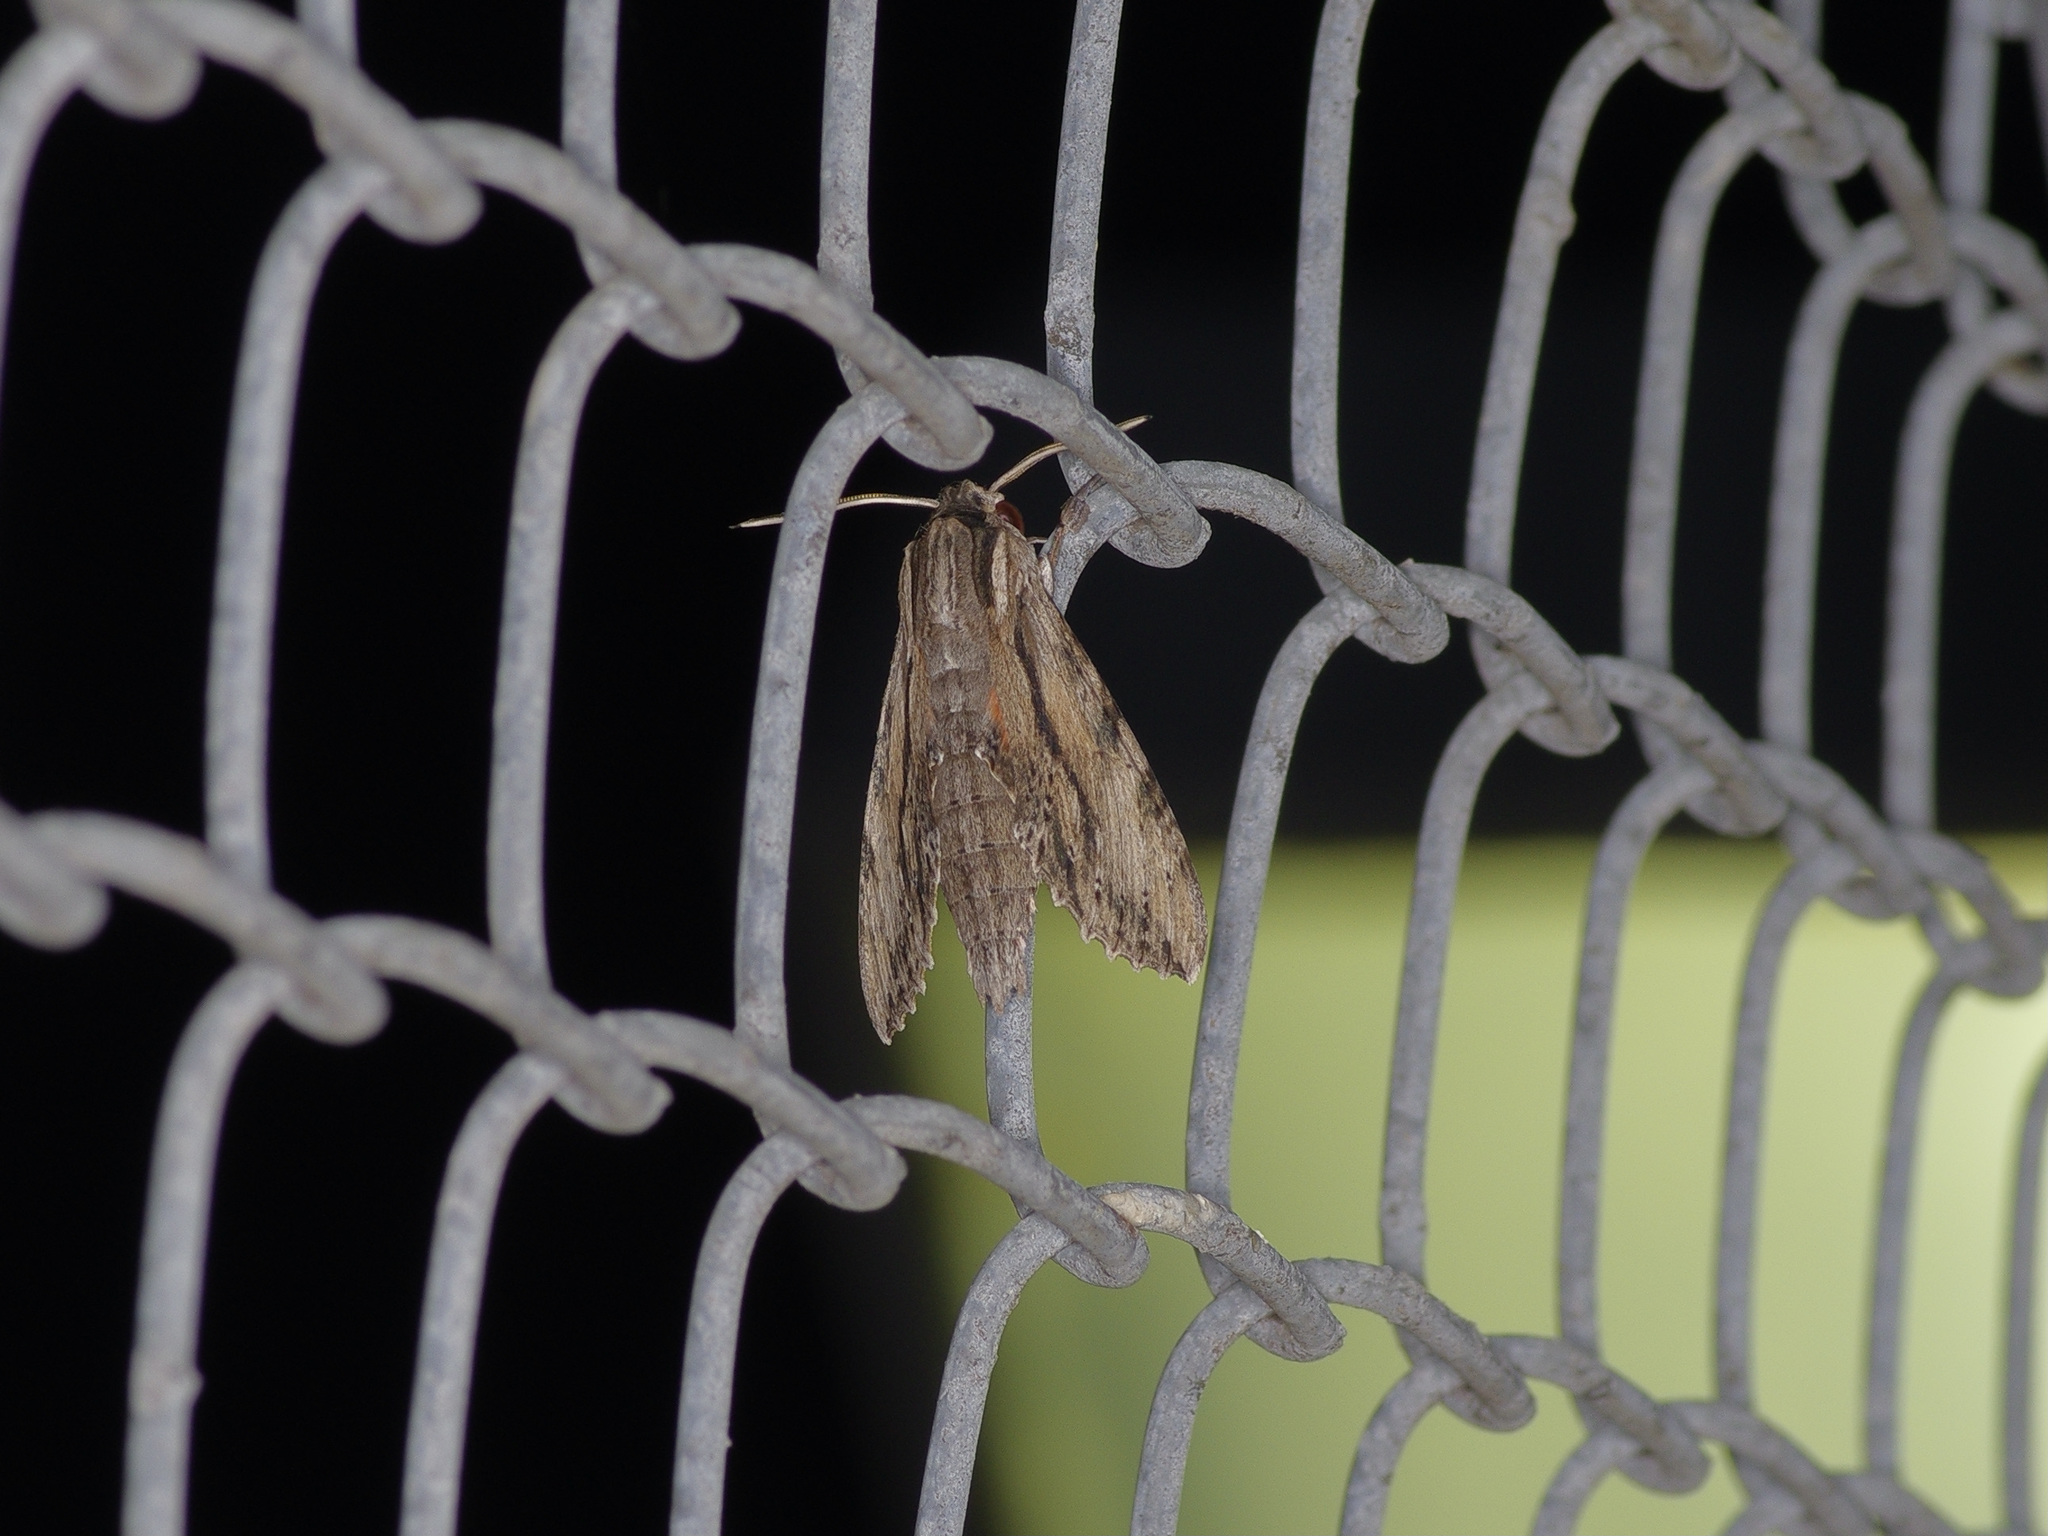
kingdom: Animalia
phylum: Arthropoda
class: Insecta
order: Lepidoptera
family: Sphingidae
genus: Erinnyis
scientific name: Erinnyis obscura
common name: Obscure sphinx
